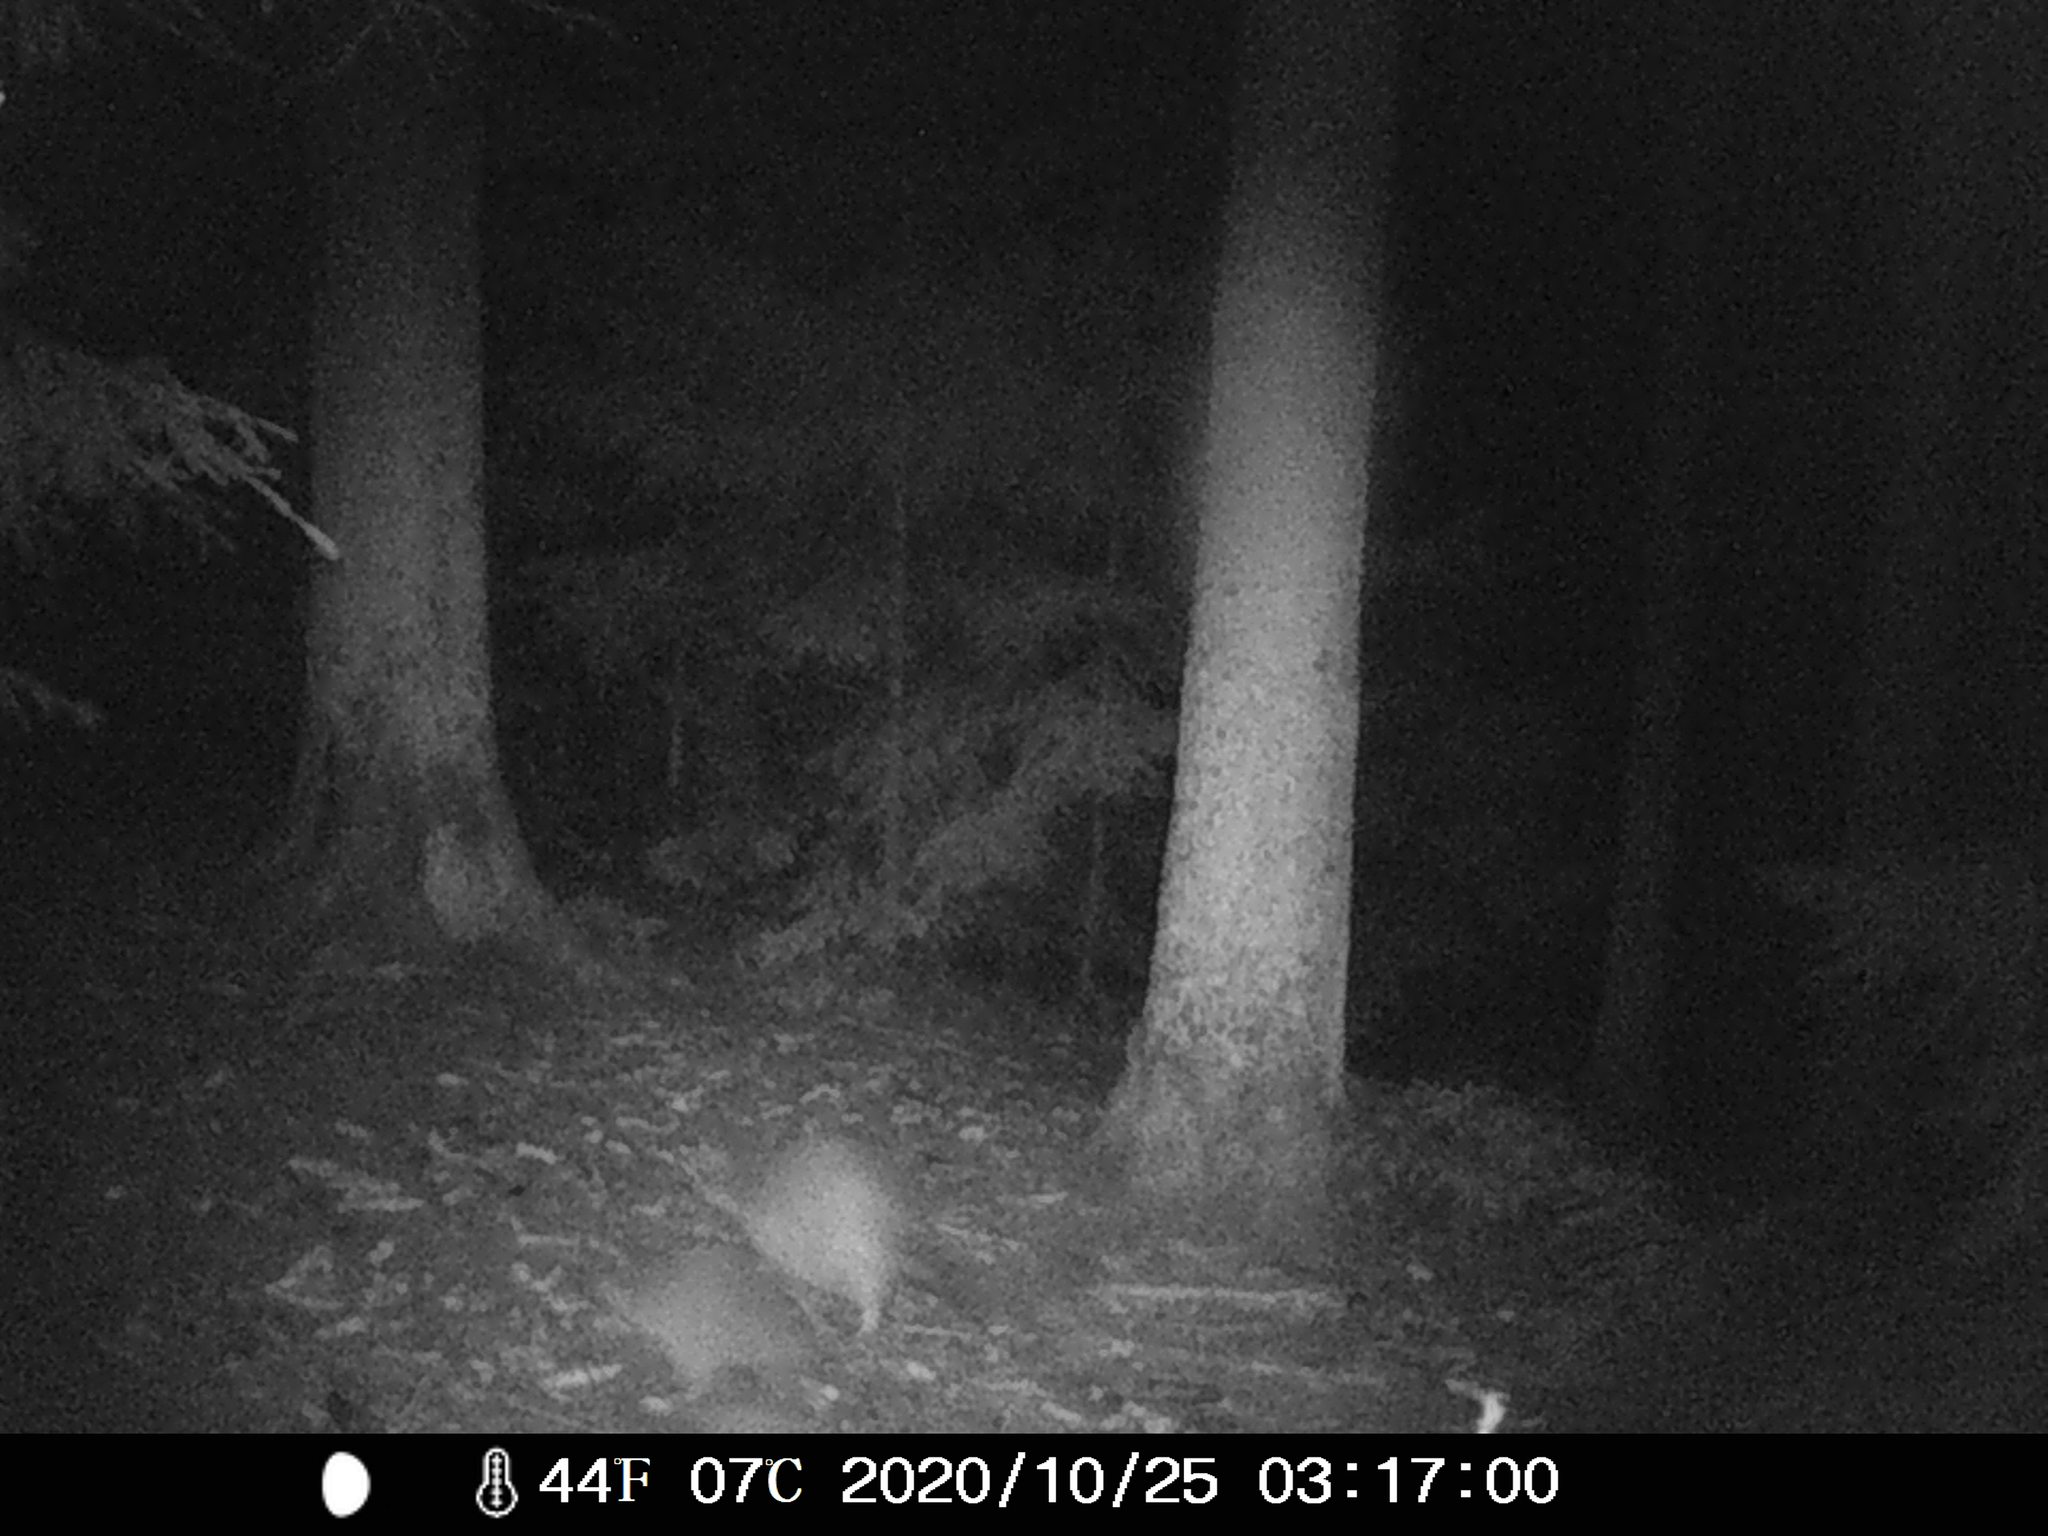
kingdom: Animalia
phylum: Chordata
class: Mammalia
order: Carnivora
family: Procyonidae
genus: Procyon
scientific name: Procyon lotor
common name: Raccoon
